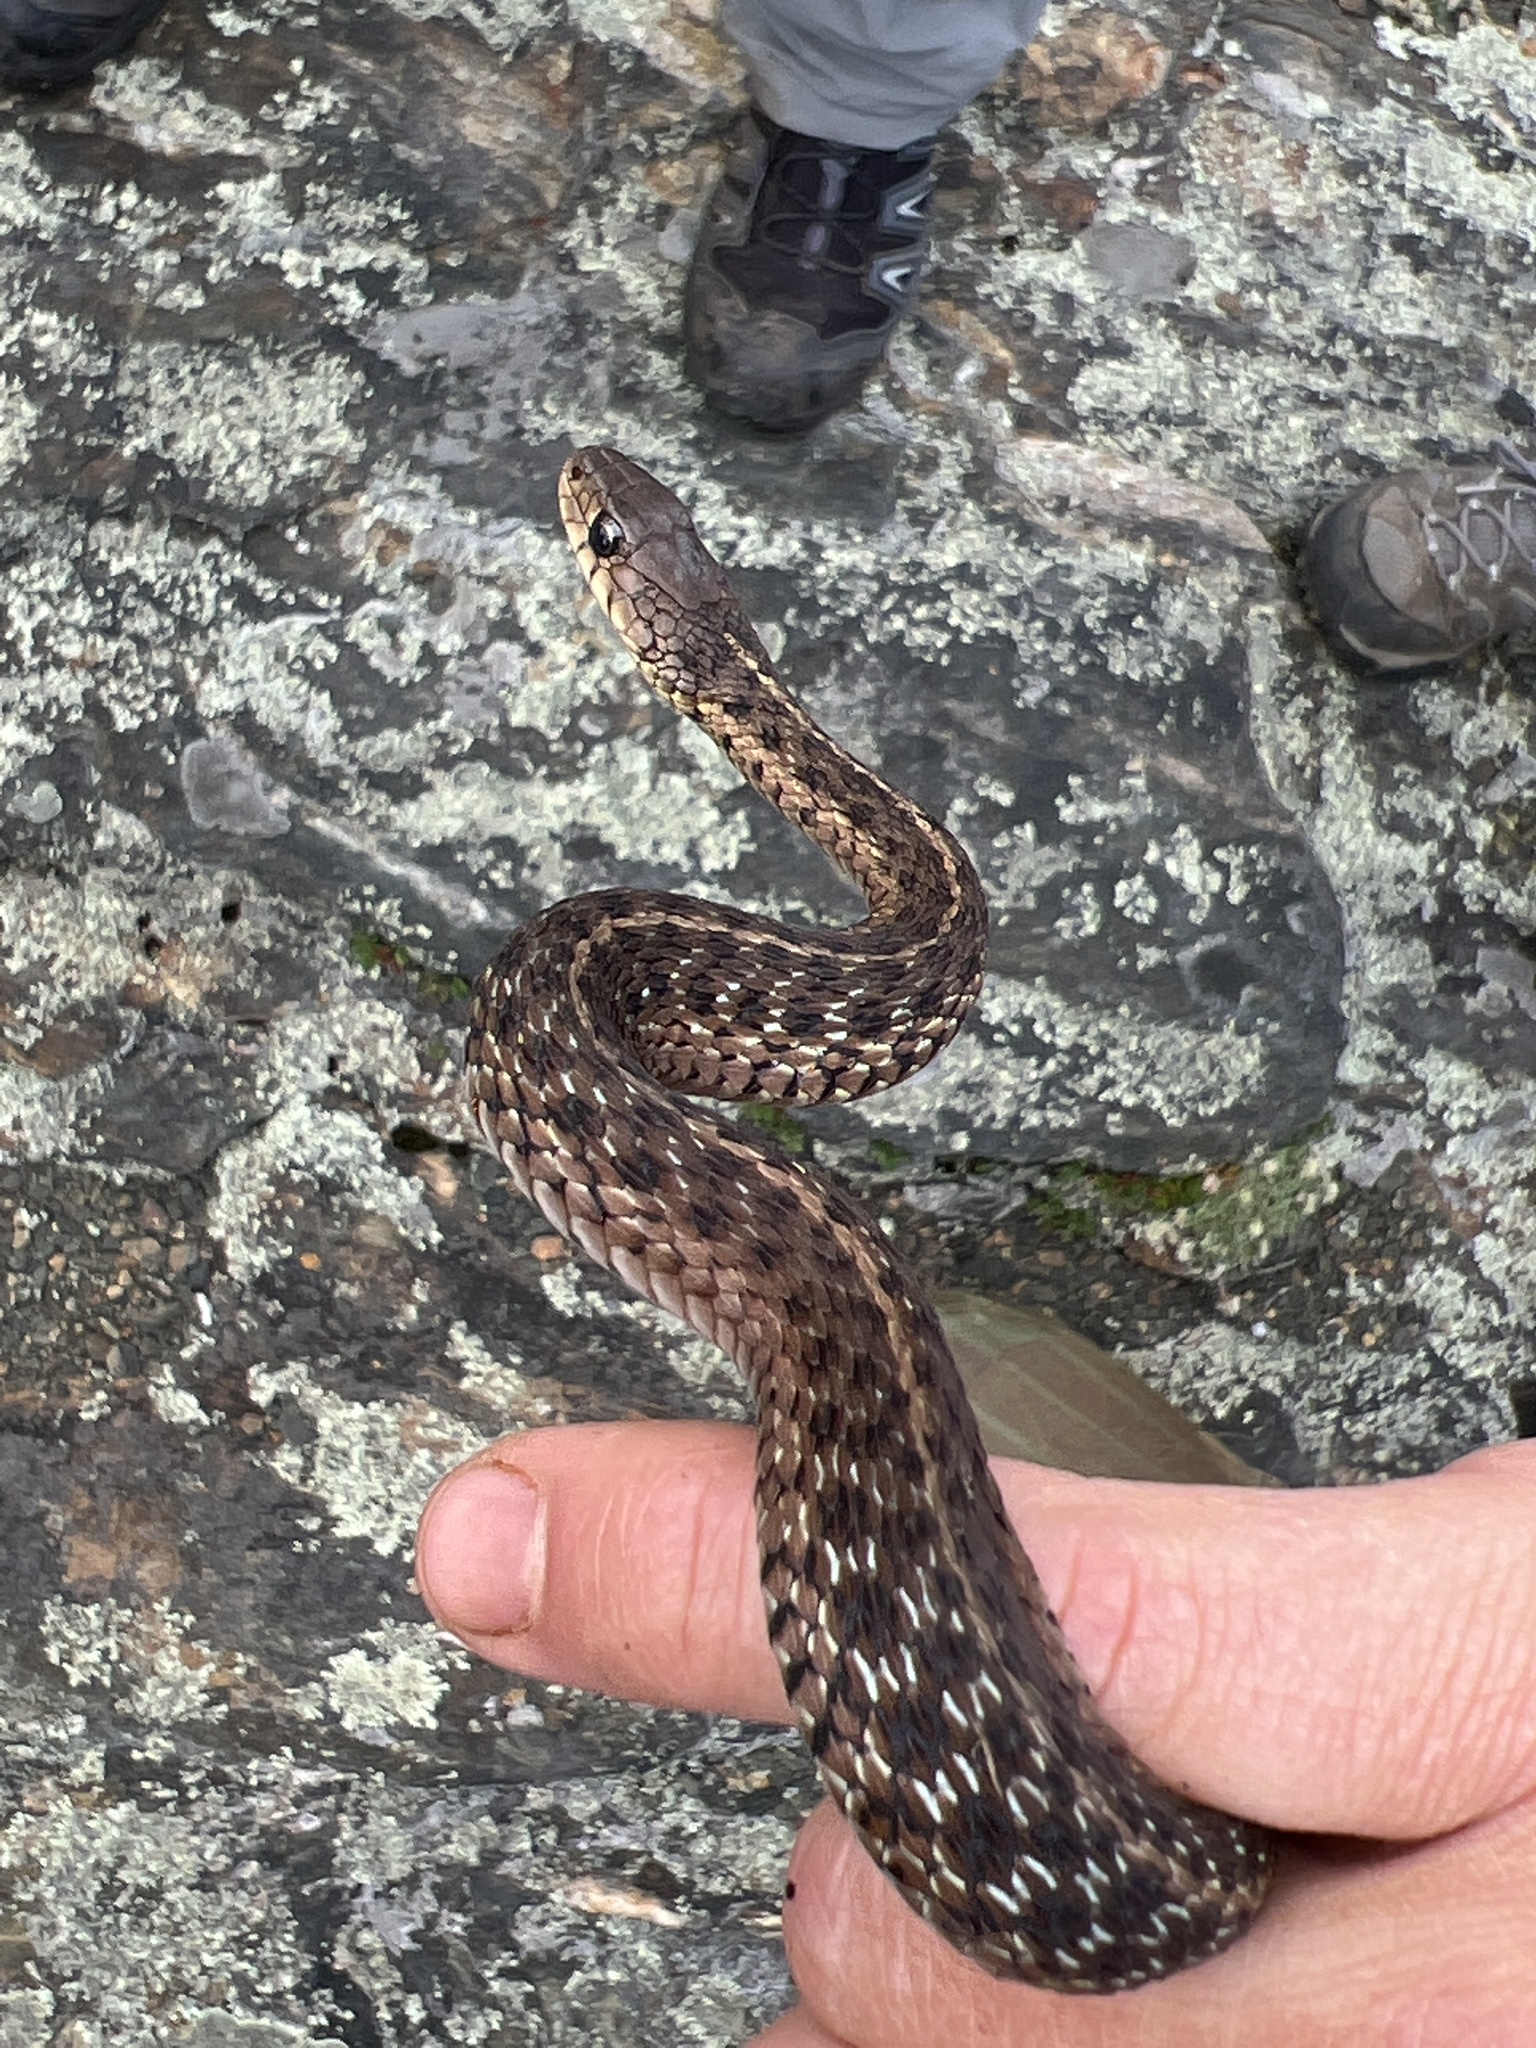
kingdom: Animalia
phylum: Chordata
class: Squamata
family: Colubridae
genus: Thamnophis
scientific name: Thamnophis sirtalis
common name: Common garter snake
